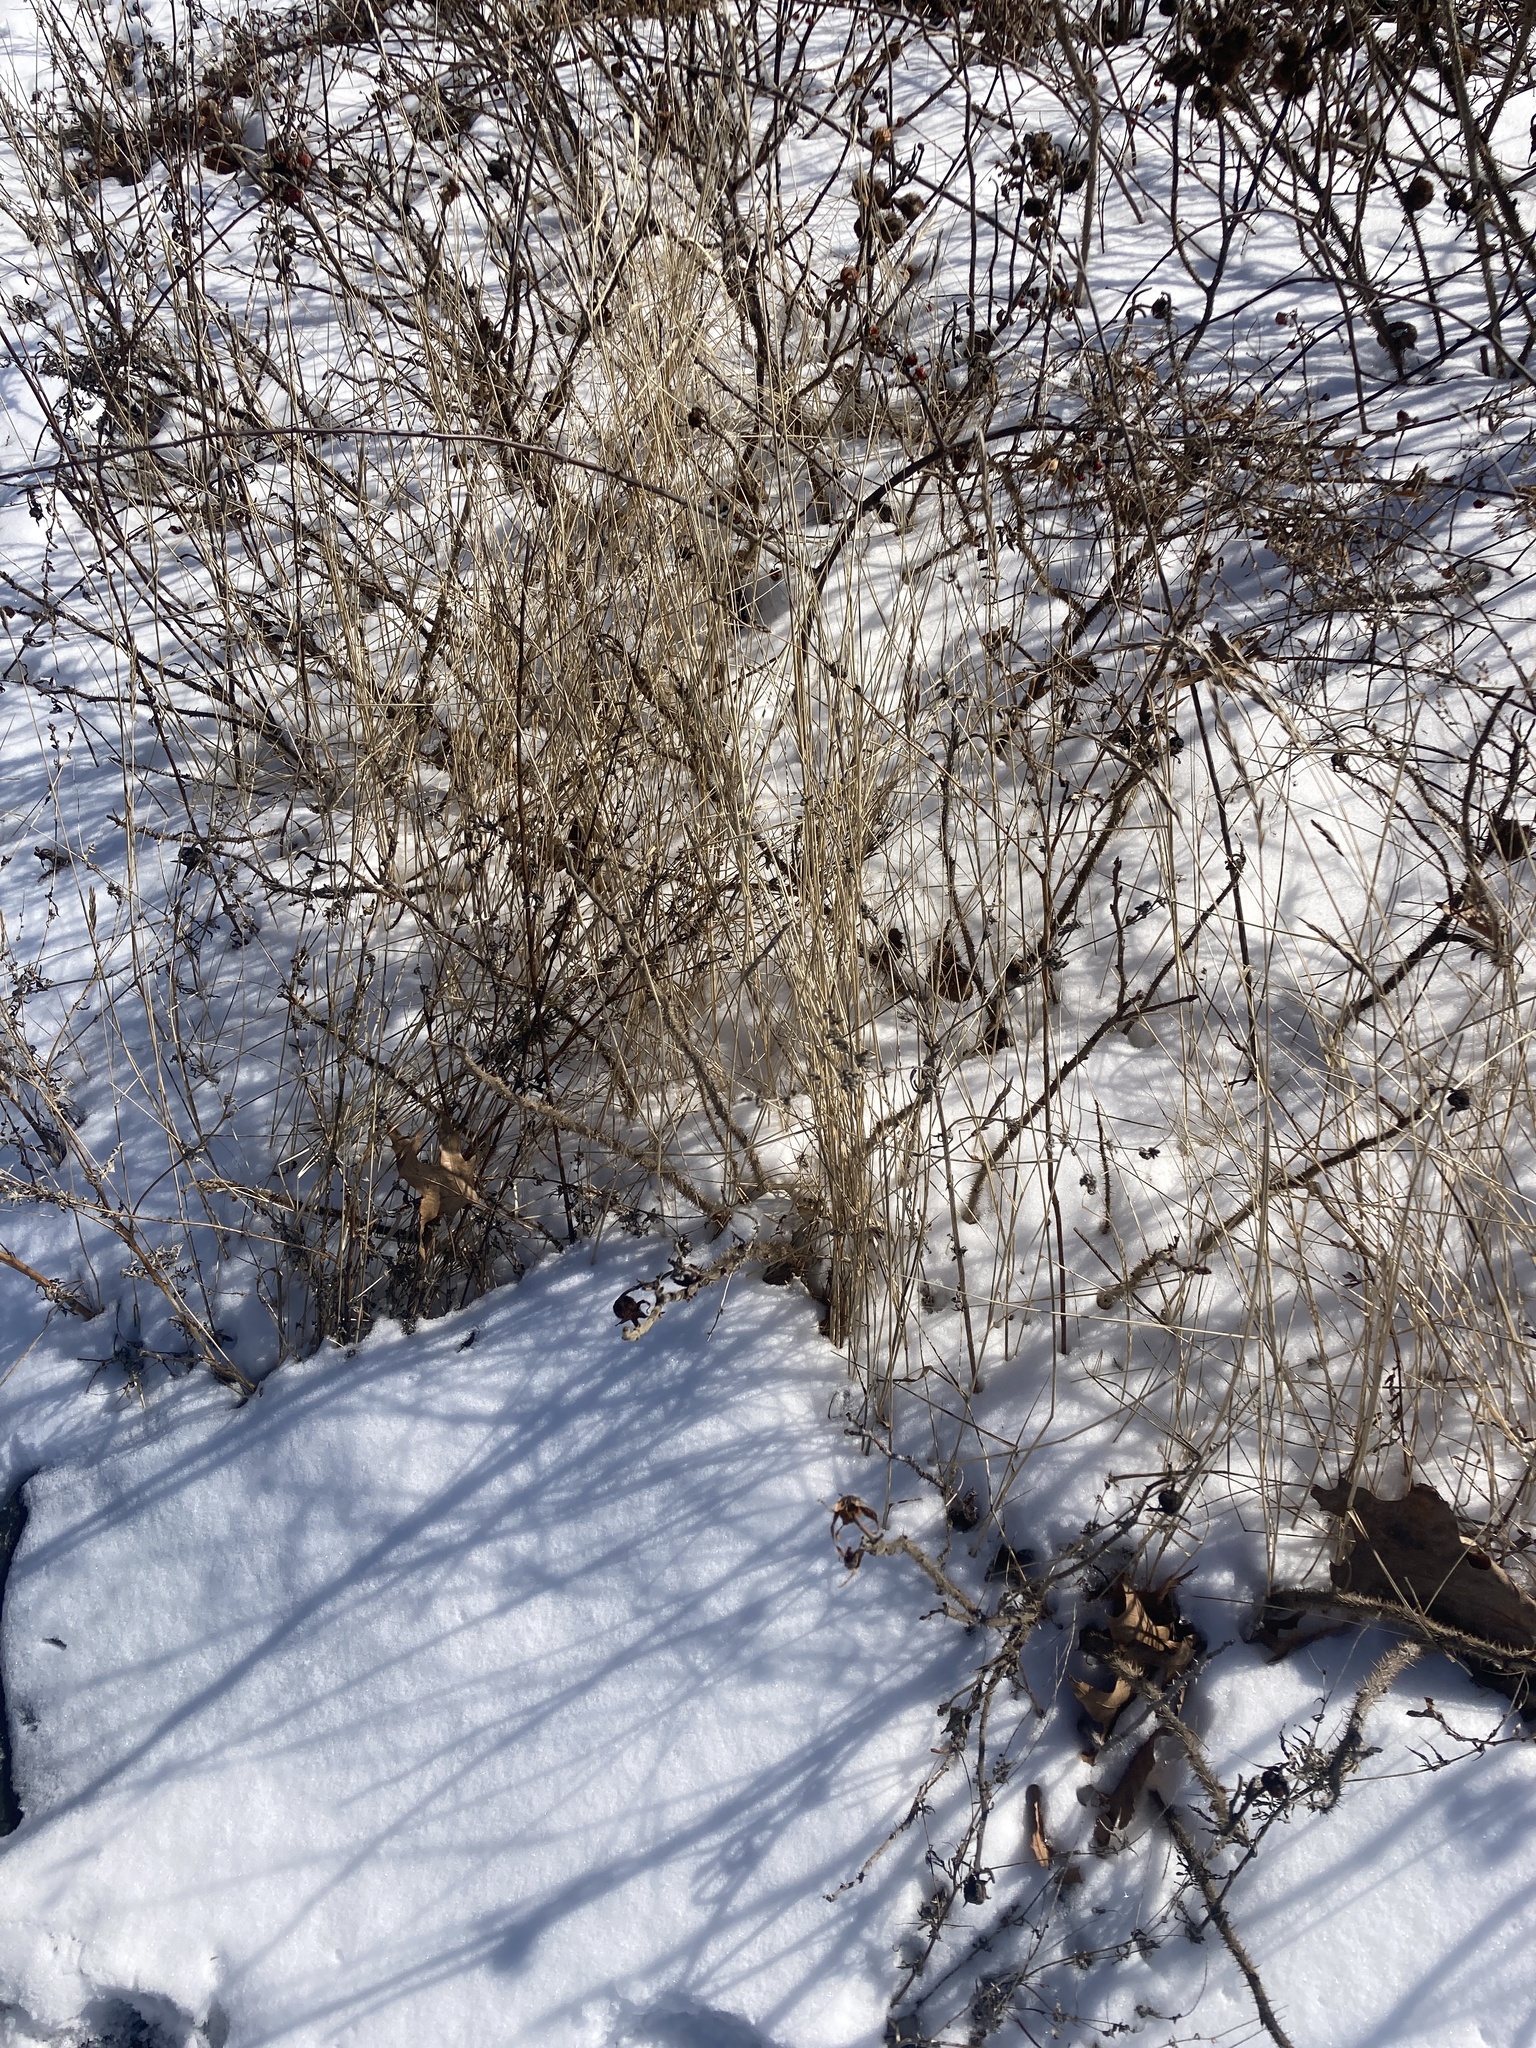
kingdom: Plantae
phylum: Tracheophyta
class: Liliopsida
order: Poales
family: Poaceae
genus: Elymus
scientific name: Elymus repens
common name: Quackgrass
